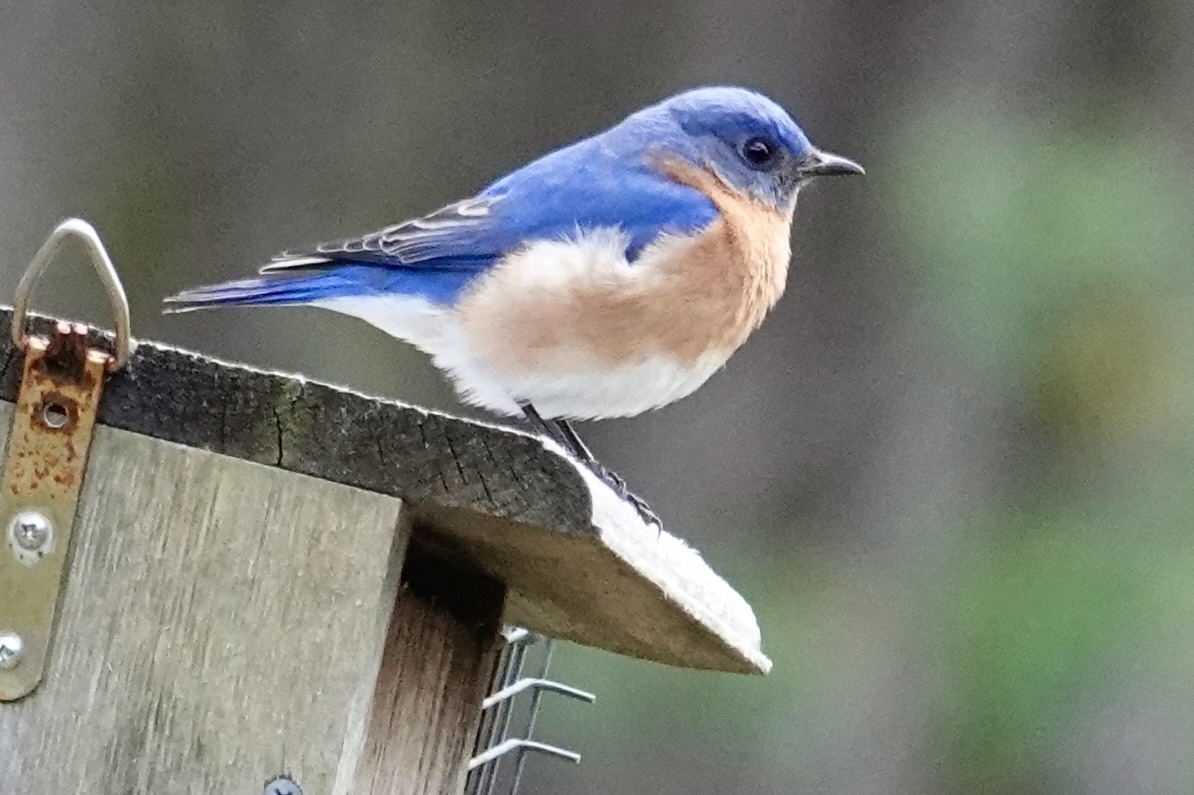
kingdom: Animalia
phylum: Chordata
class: Aves
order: Passeriformes
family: Turdidae
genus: Sialia
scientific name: Sialia sialis
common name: Eastern bluebird
